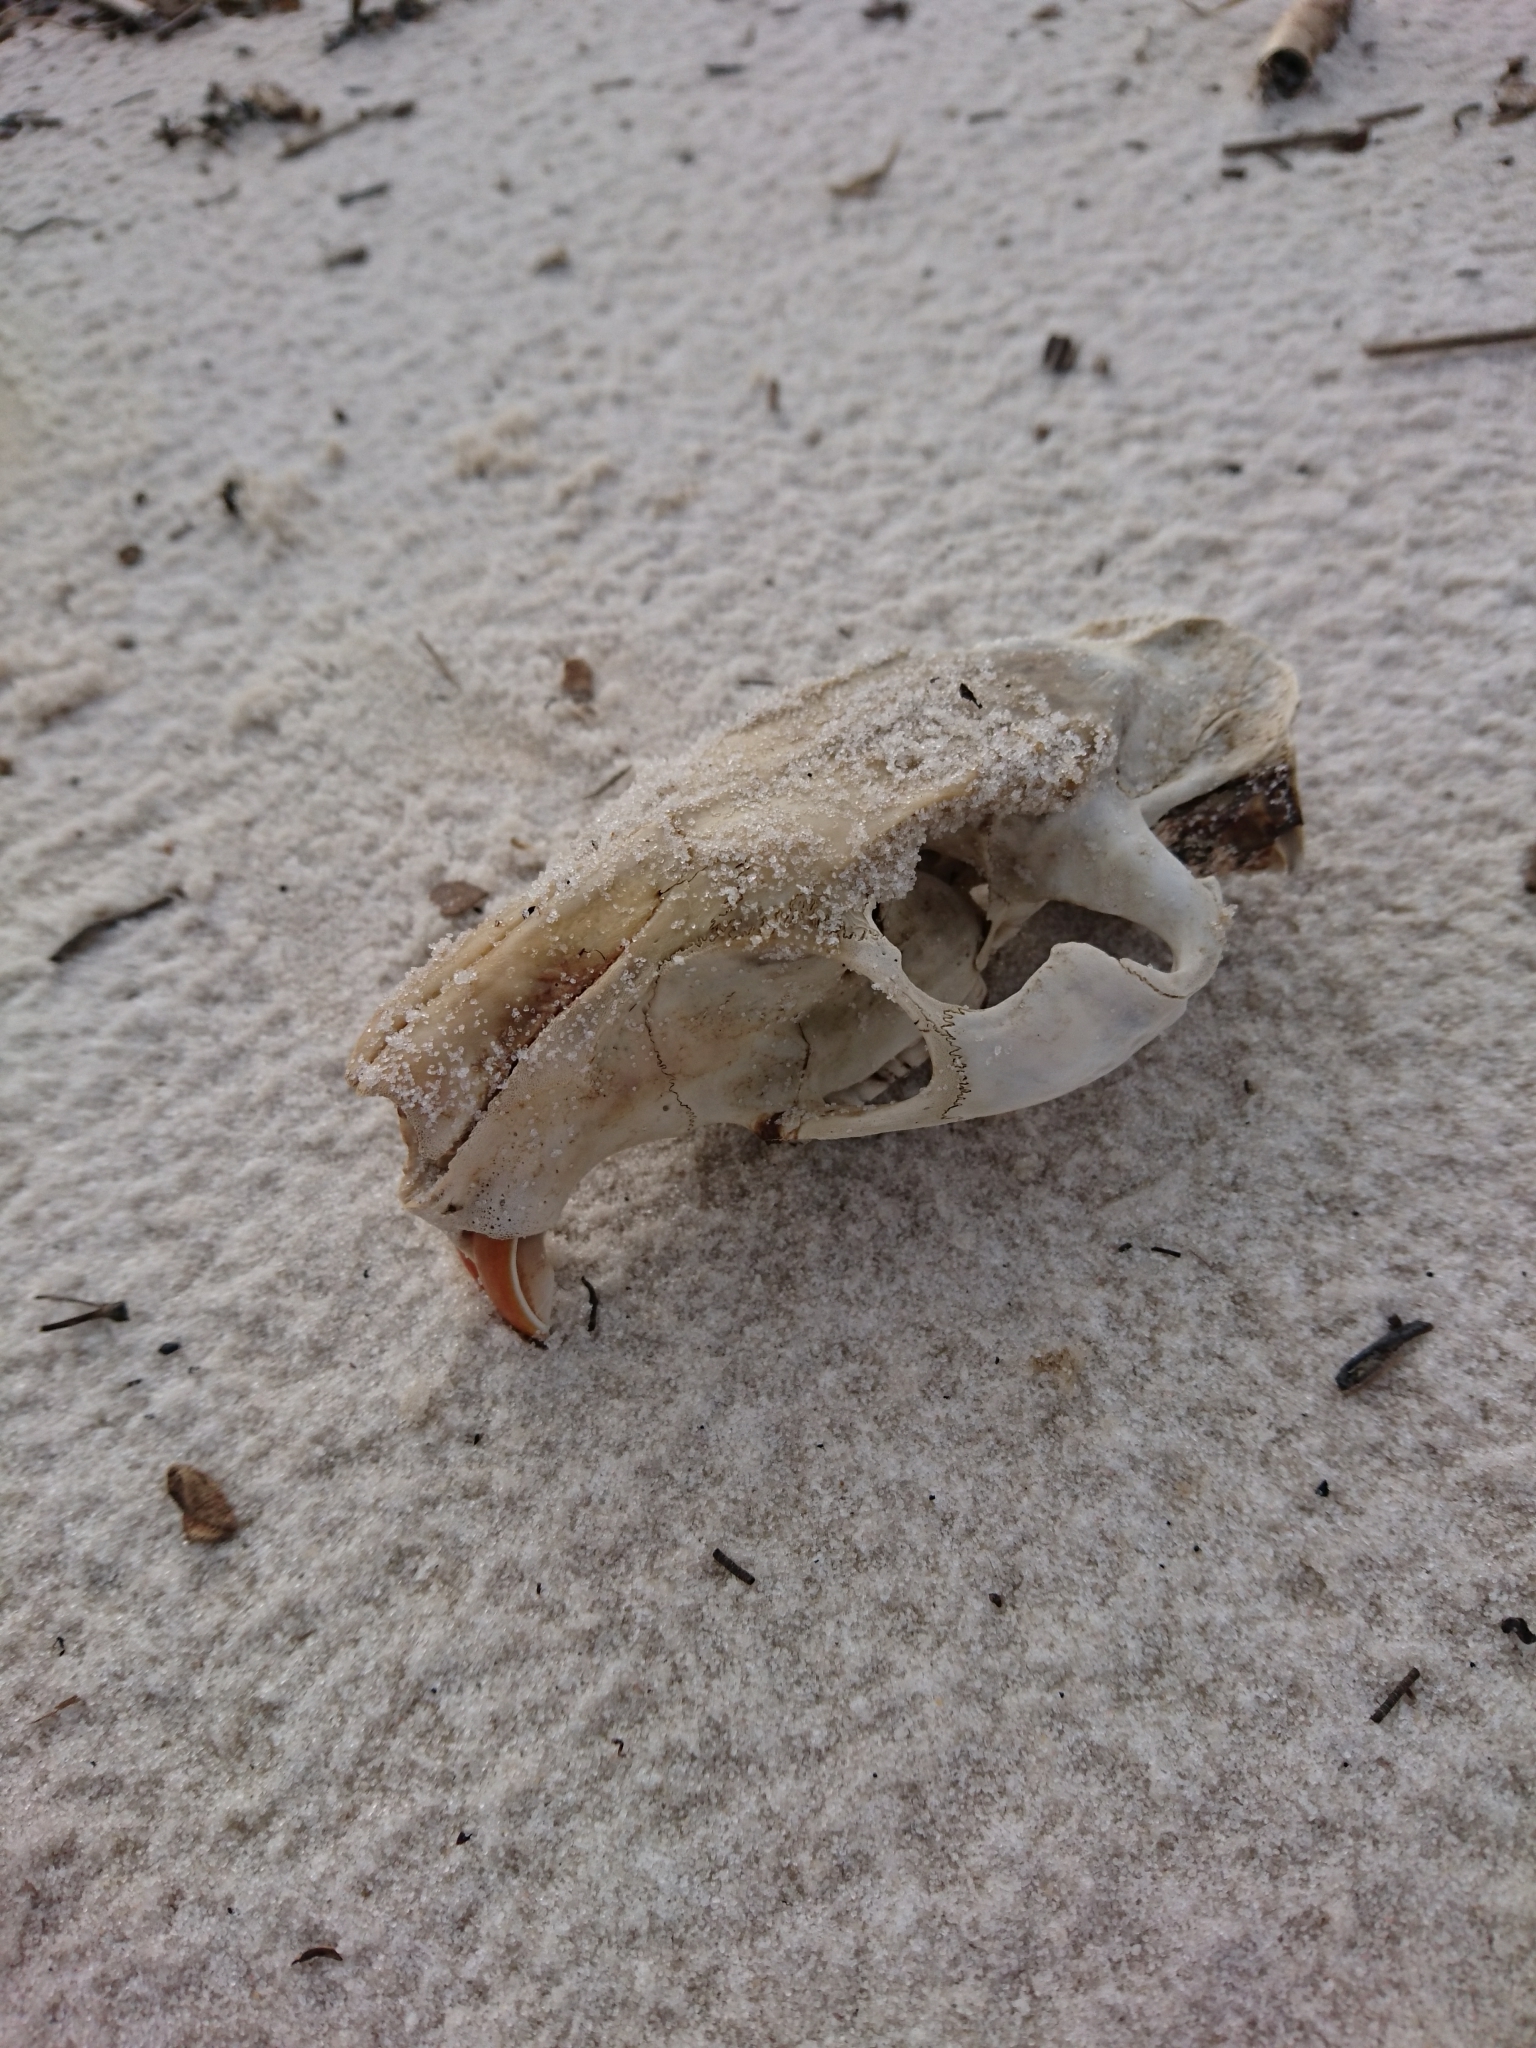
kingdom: Animalia
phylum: Chordata
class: Mammalia
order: Rodentia
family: Myocastoridae
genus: Myocastor
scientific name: Myocastor coypus
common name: Coypu
